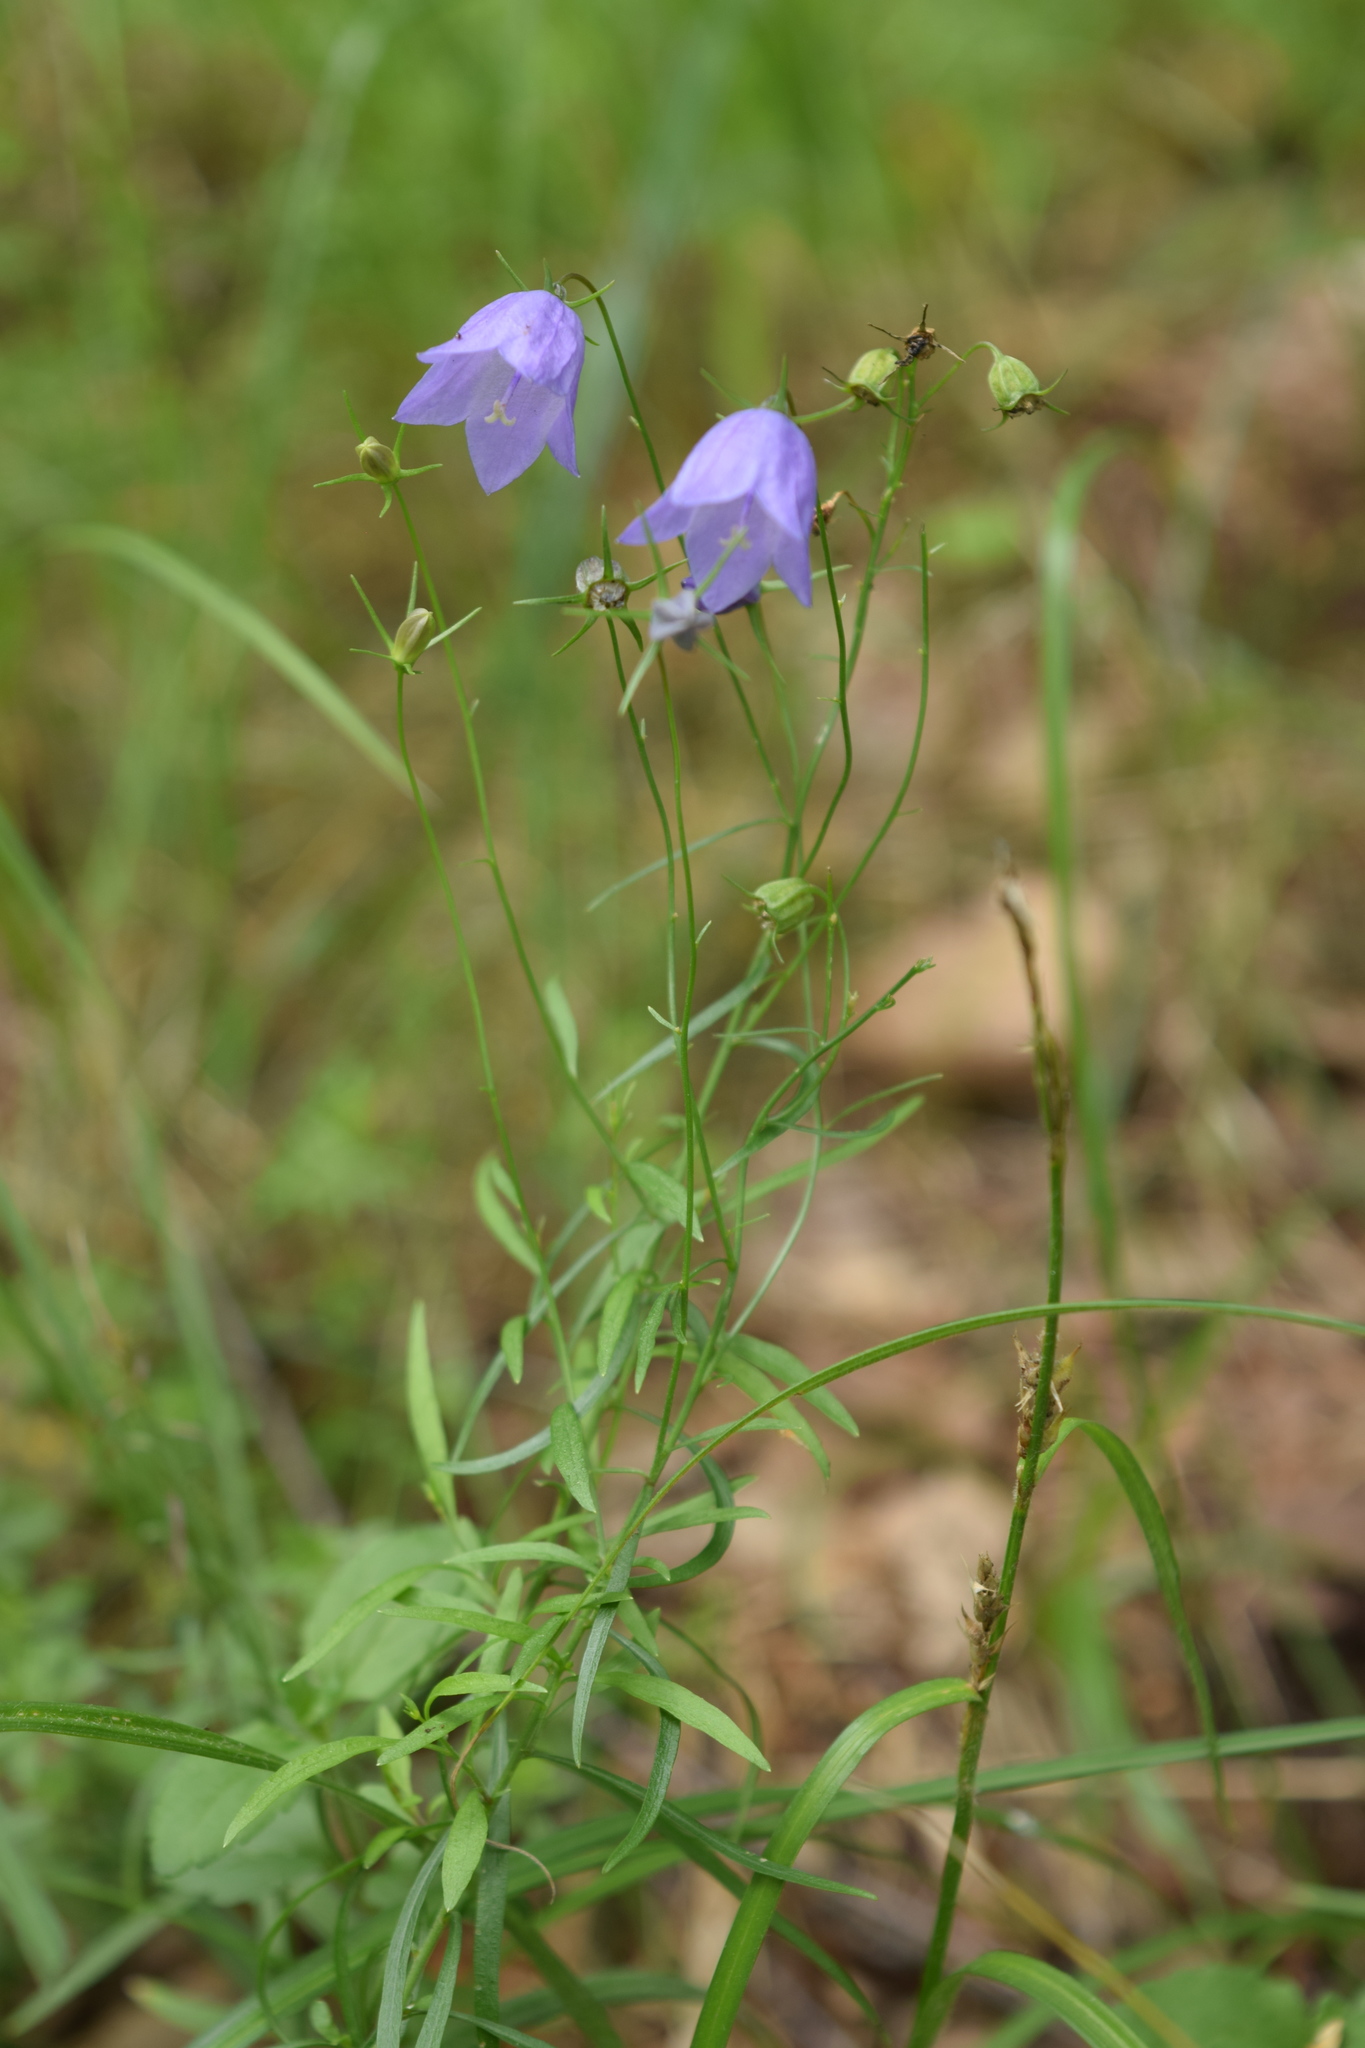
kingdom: Plantae
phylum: Tracheophyta
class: Magnoliopsida
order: Asterales
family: Campanulaceae
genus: Campanula
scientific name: Campanula rotundifolia
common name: Harebell
